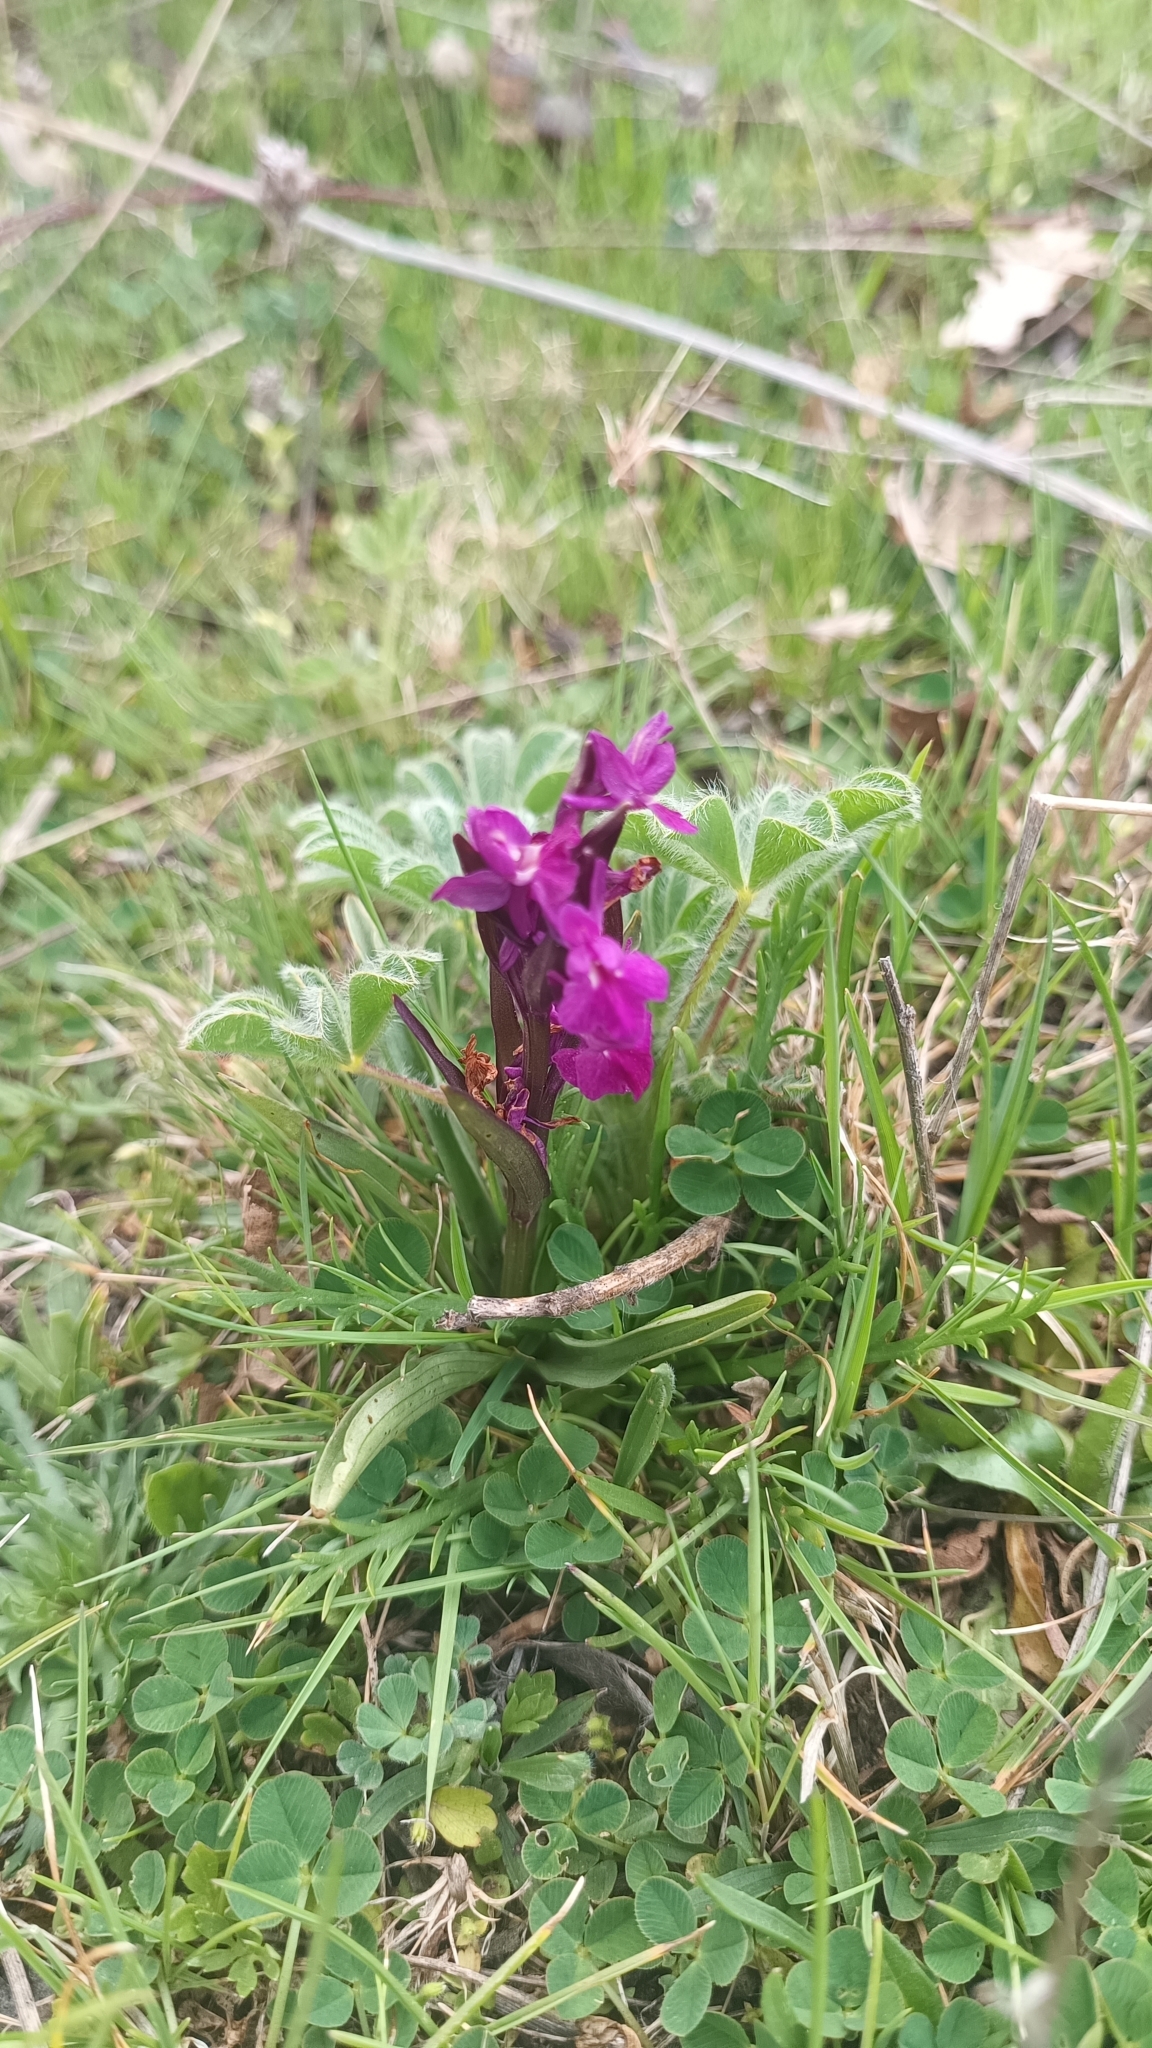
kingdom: Plantae
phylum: Tracheophyta
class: Liliopsida
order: Asparagales
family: Orchidaceae
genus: Dactylorhiza
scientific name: Dactylorhiza romana
